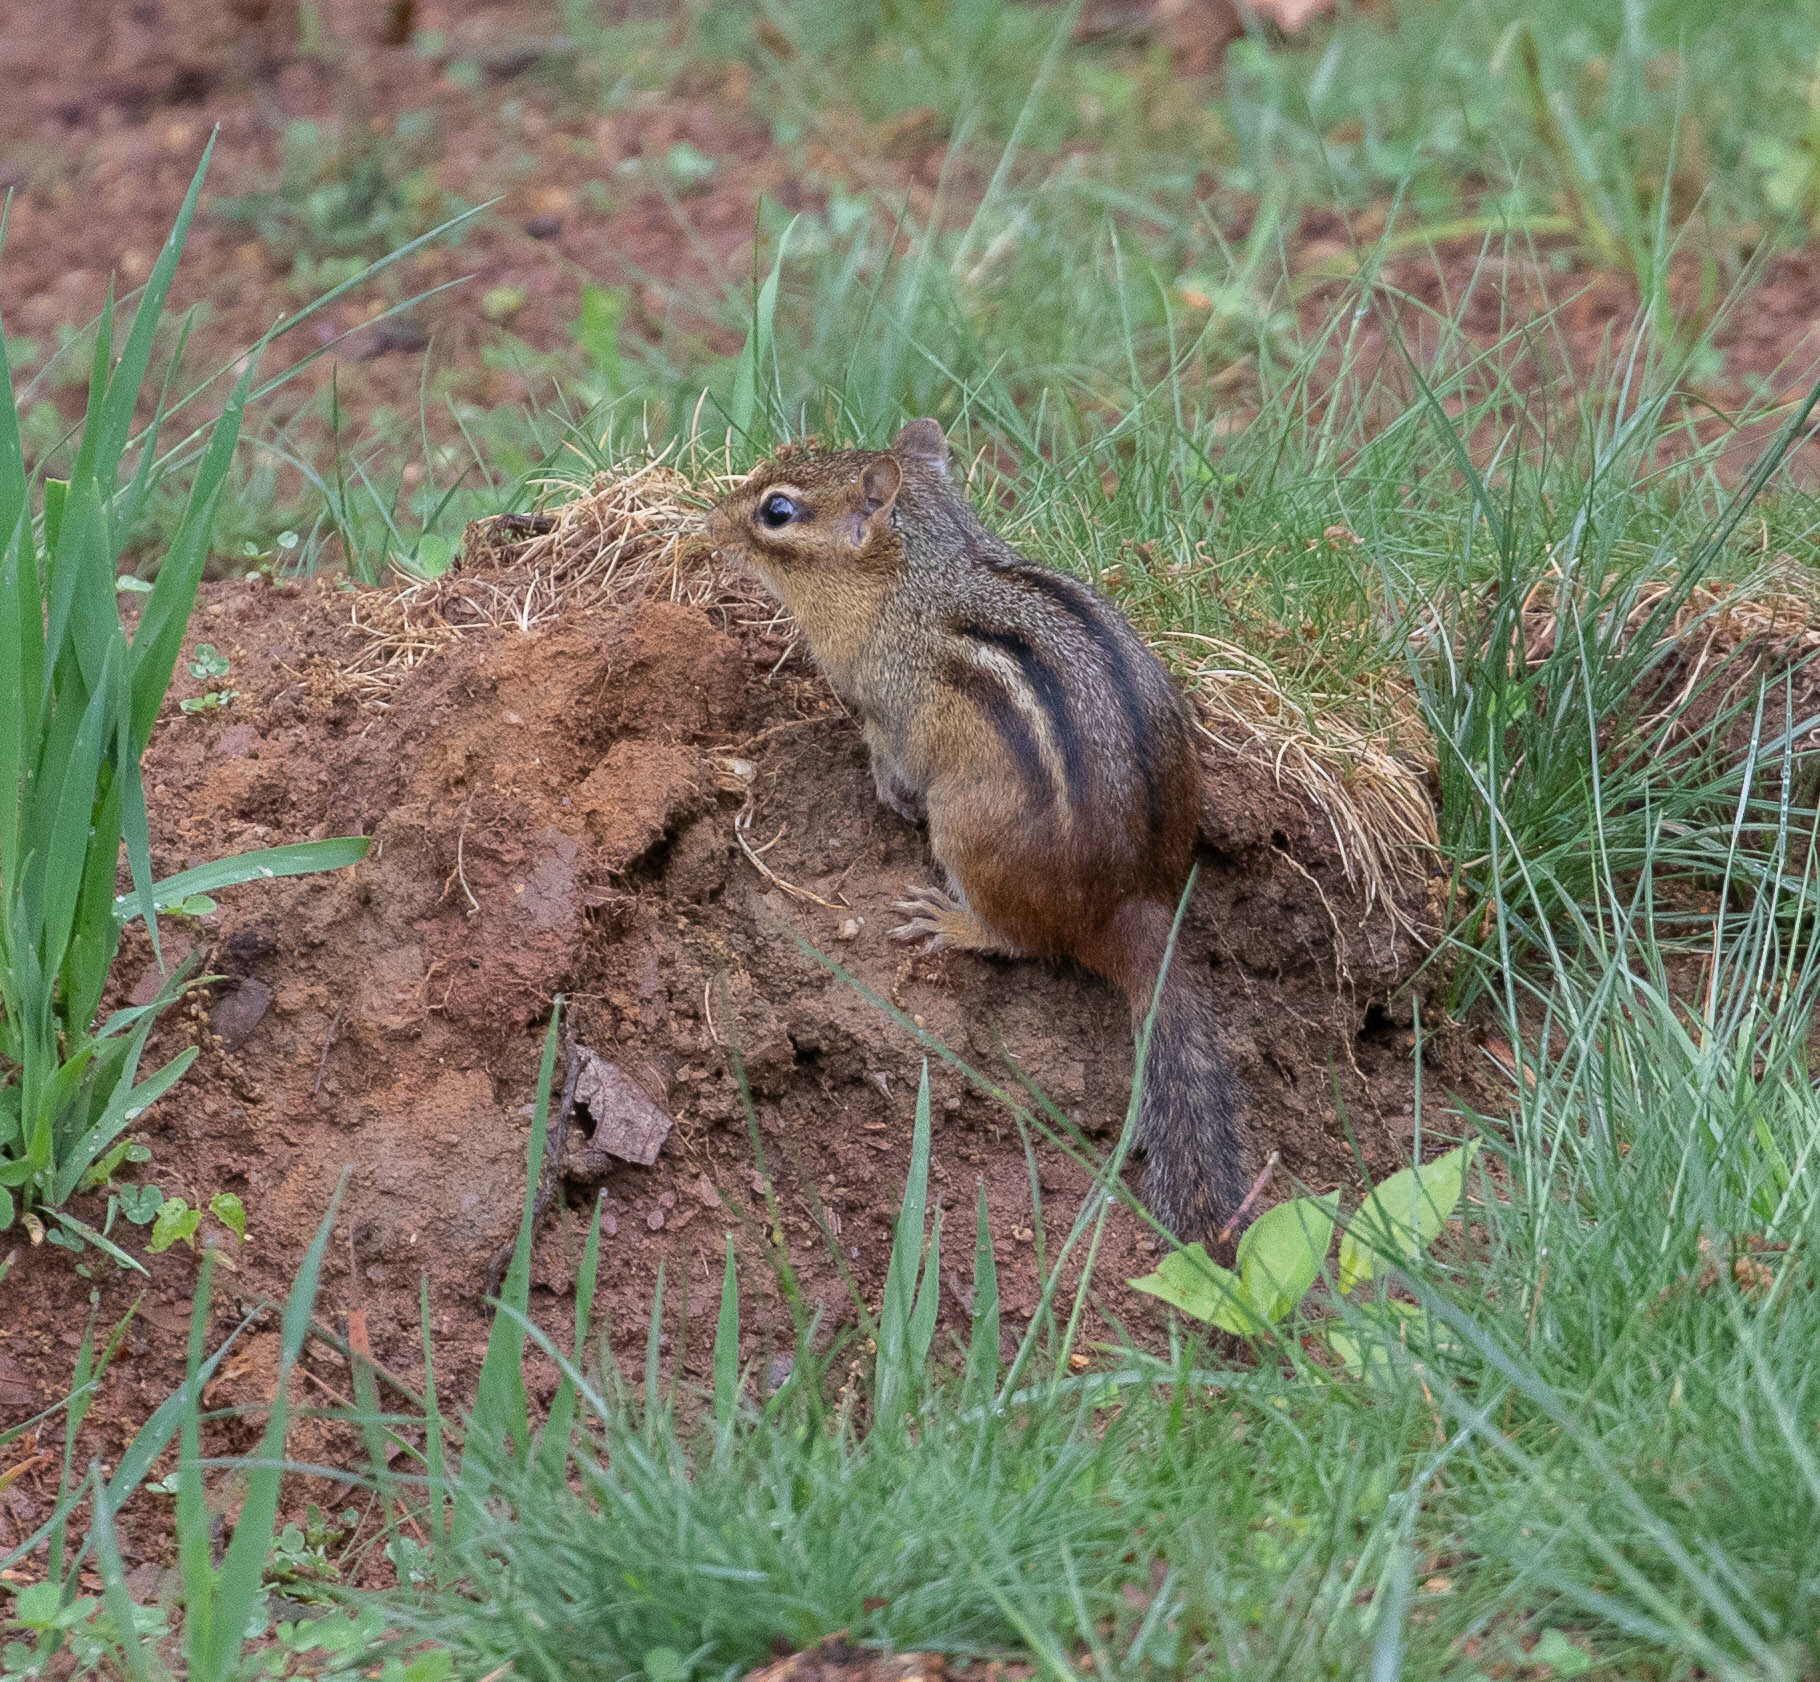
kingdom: Animalia
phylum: Chordata
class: Mammalia
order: Rodentia
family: Sciuridae
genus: Tamias
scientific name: Tamias striatus
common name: Eastern chipmunk
